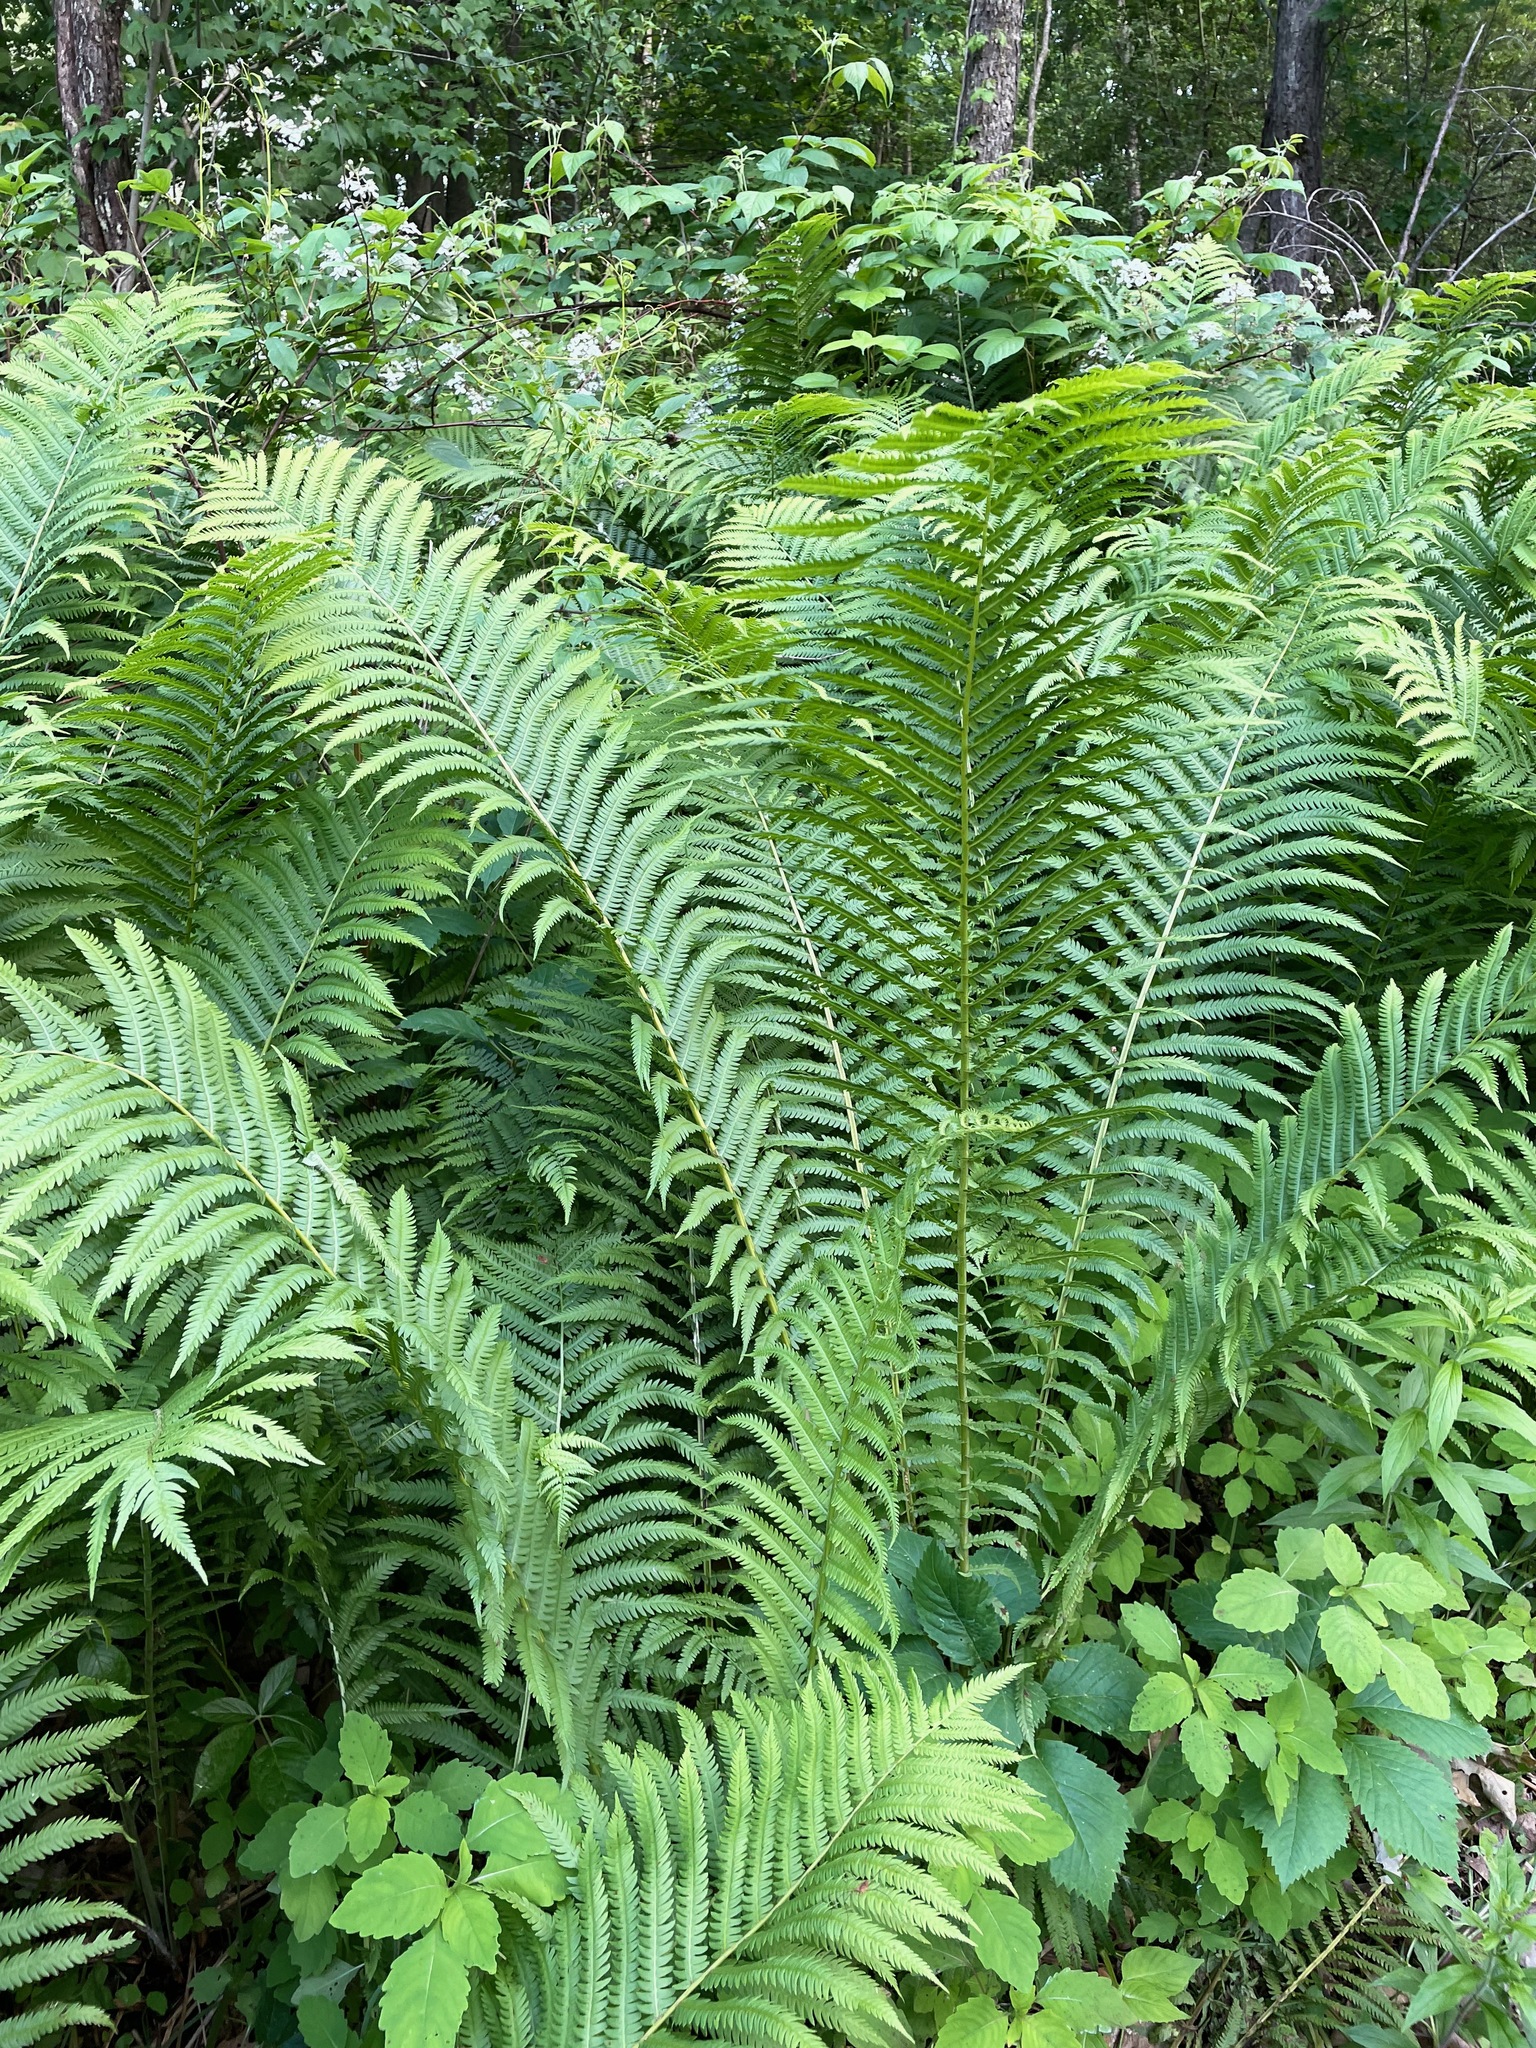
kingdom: Plantae
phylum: Tracheophyta
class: Polypodiopsida
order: Polypodiales
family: Onocleaceae
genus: Matteuccia
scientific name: Matteuccia struthiopteris
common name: Ostrich fern
